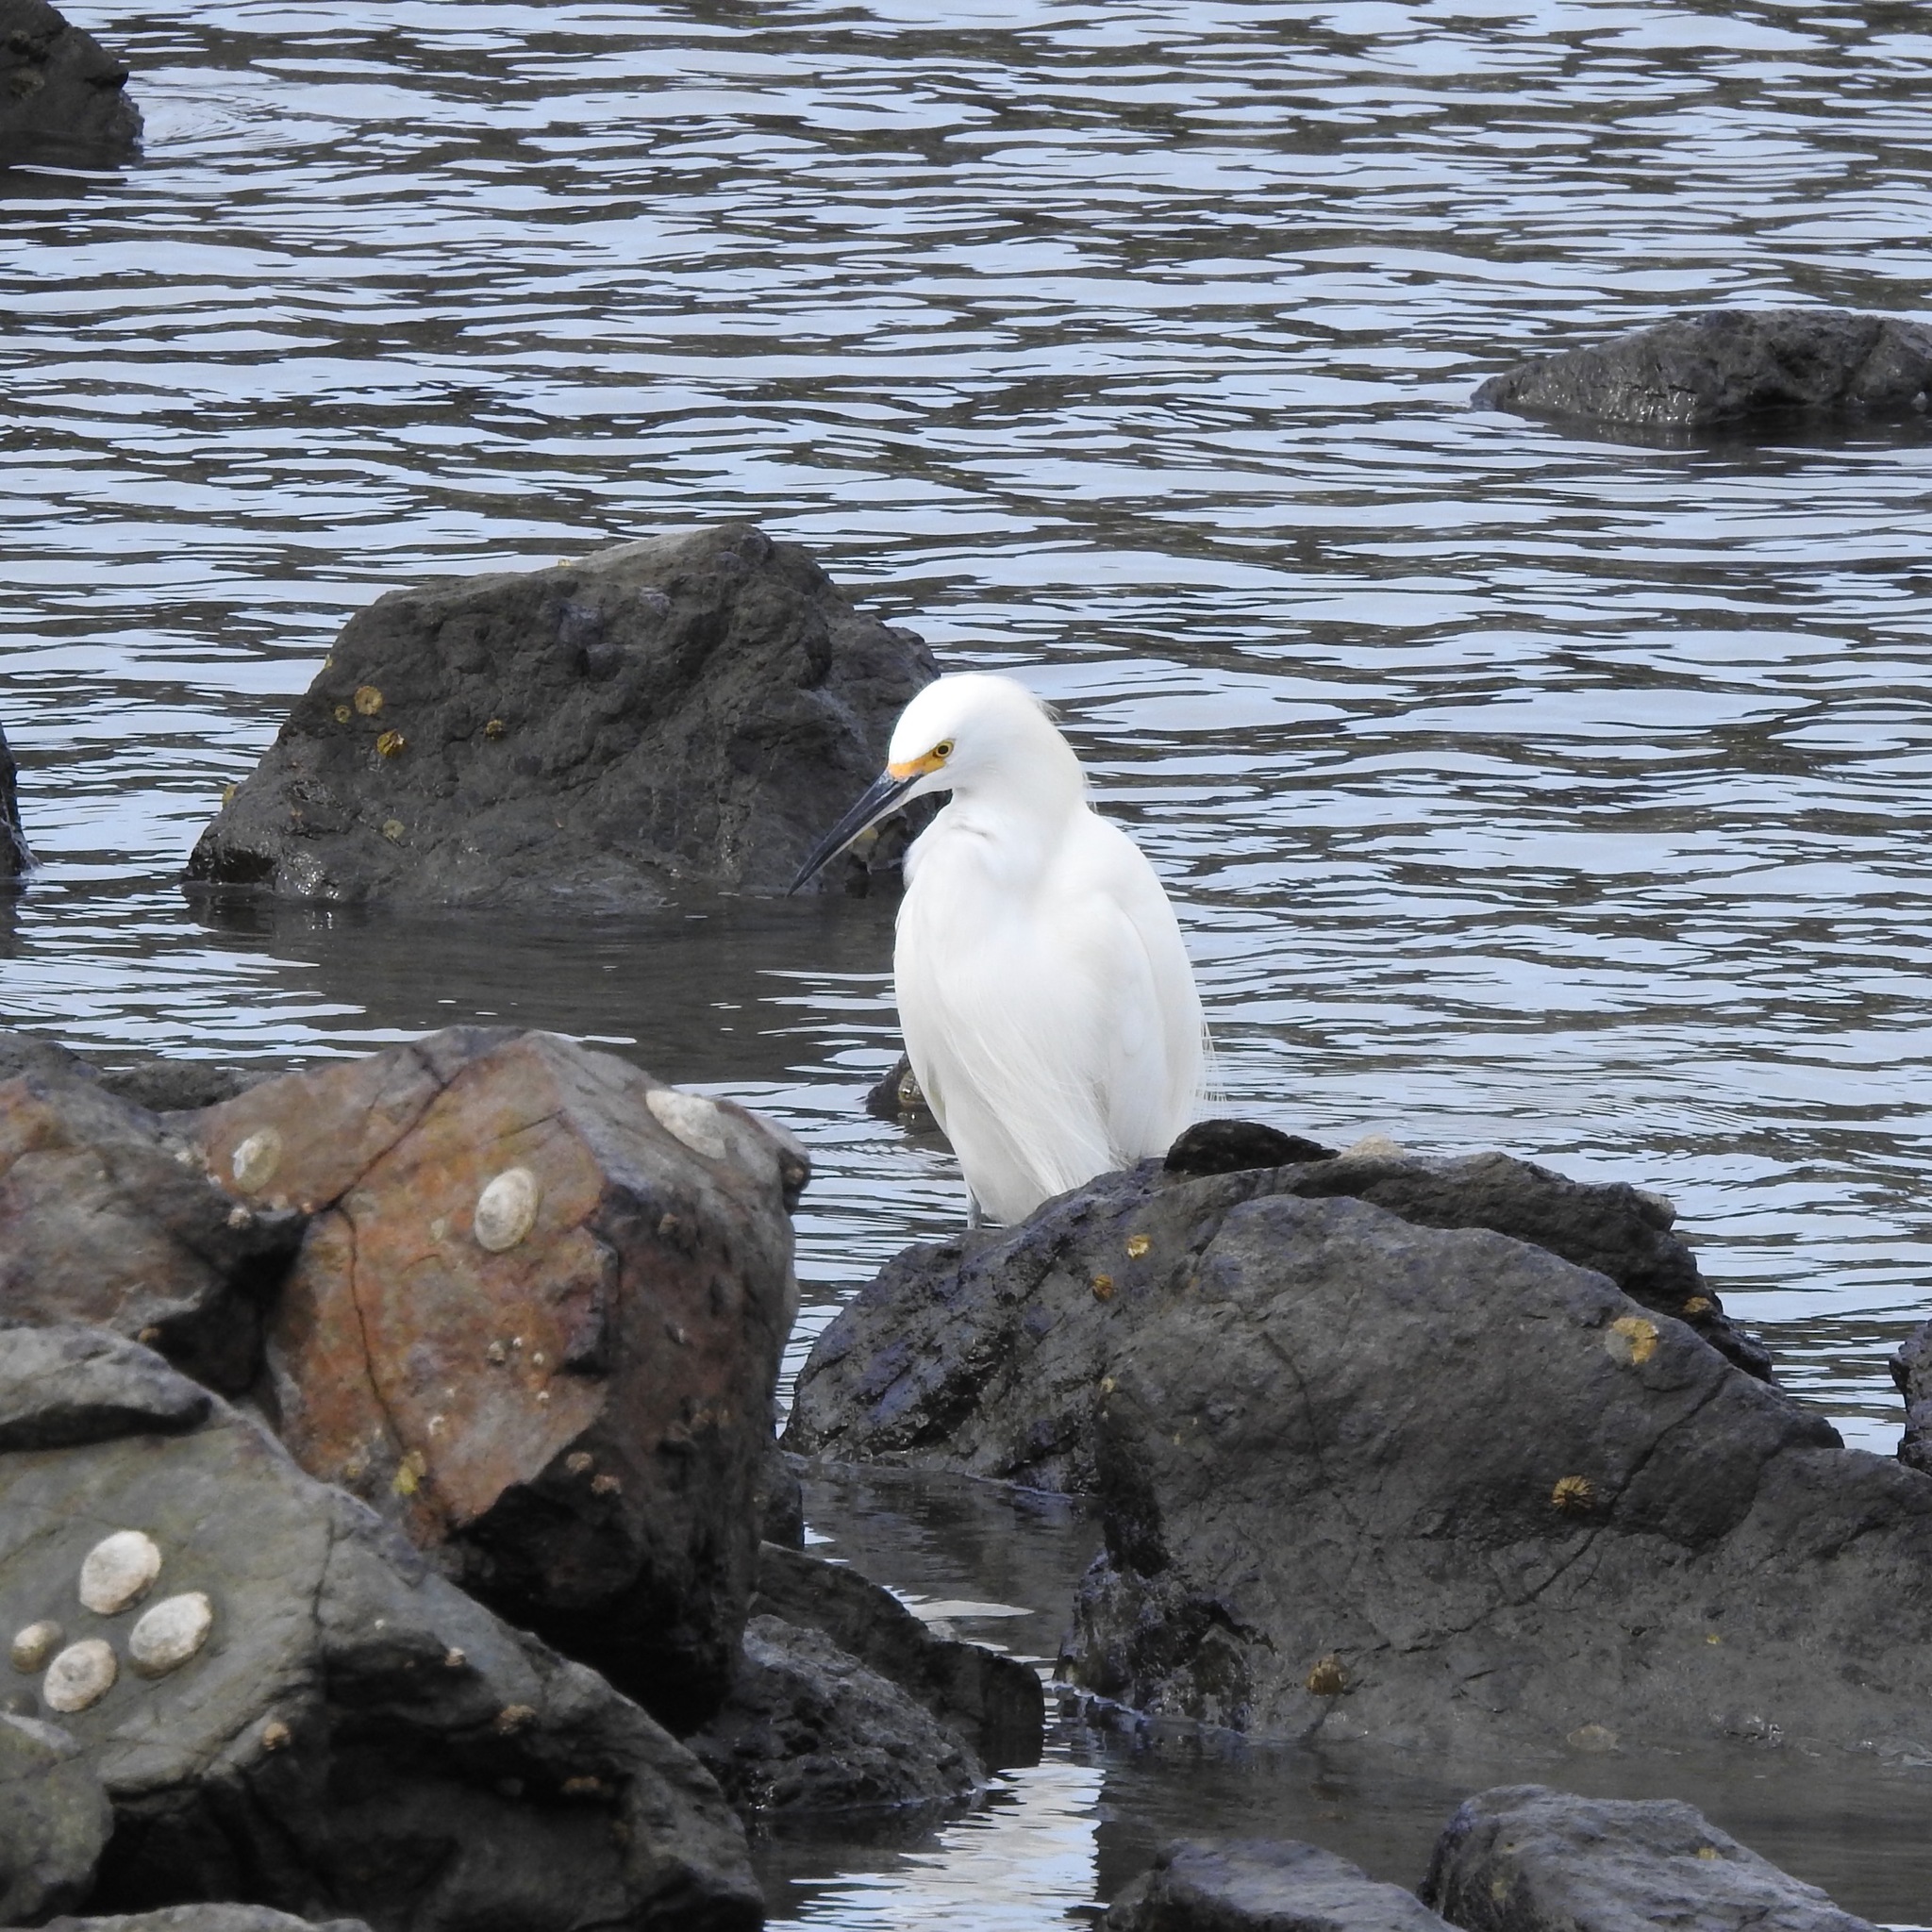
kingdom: Animalia
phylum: Chordata
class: Aves
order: Pelecaniformes
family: Ardeidae
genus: Egretta
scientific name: Egretta thula
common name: Snowy egret
